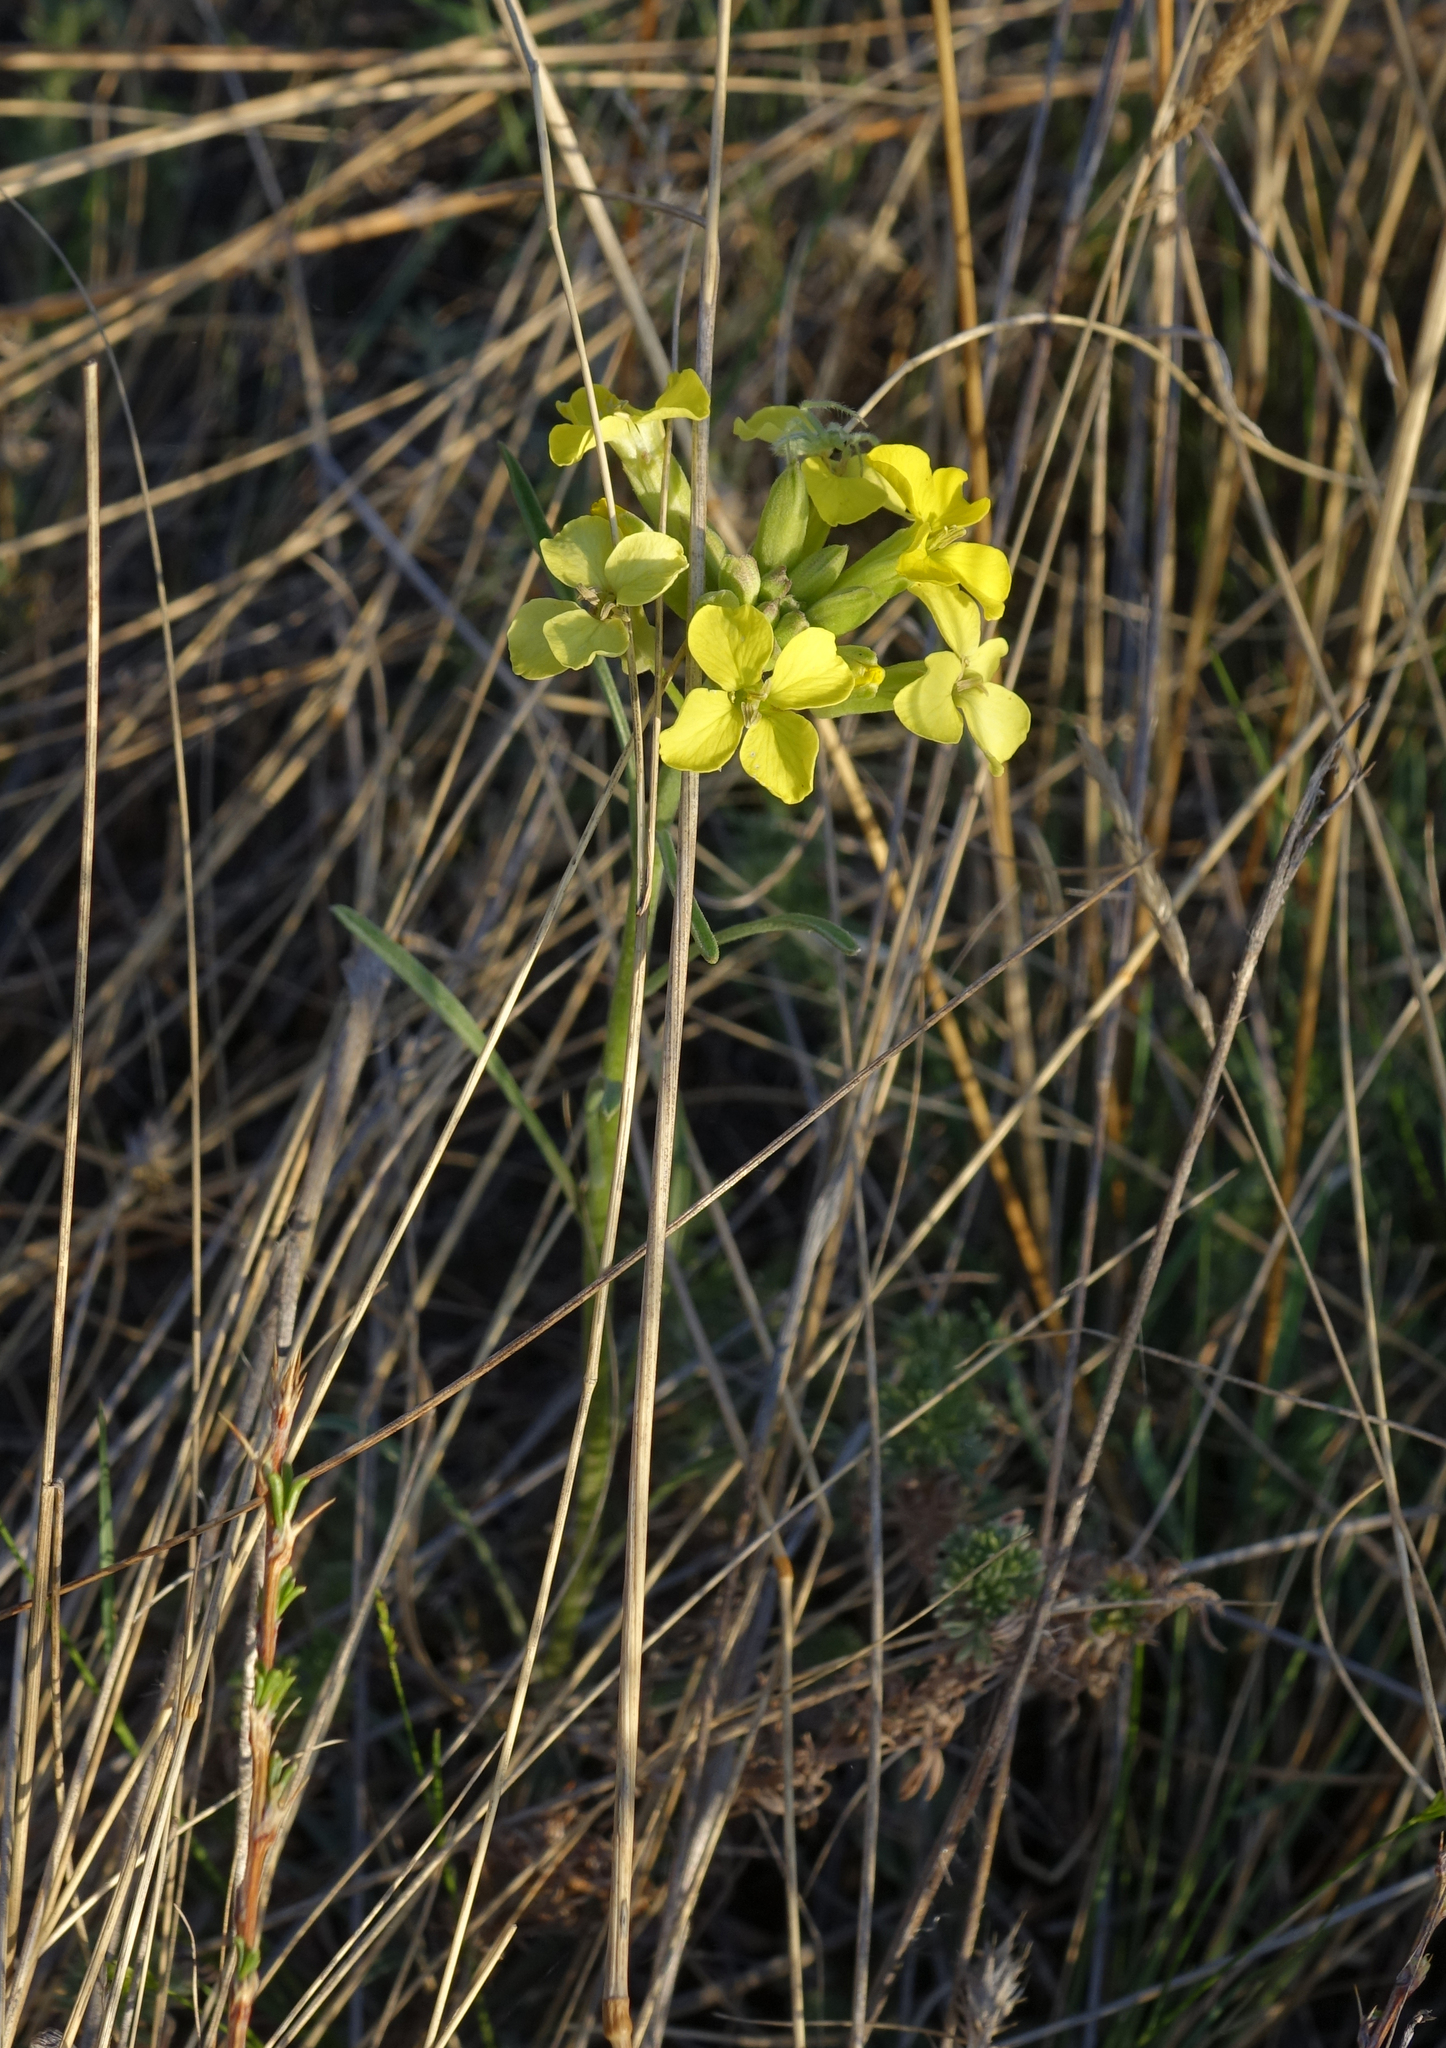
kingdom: Plantae
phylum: Tracheophyta
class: Magnoliopsida
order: Brassicales
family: Brassicaceae
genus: Erysimum
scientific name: Erysimum flavum
